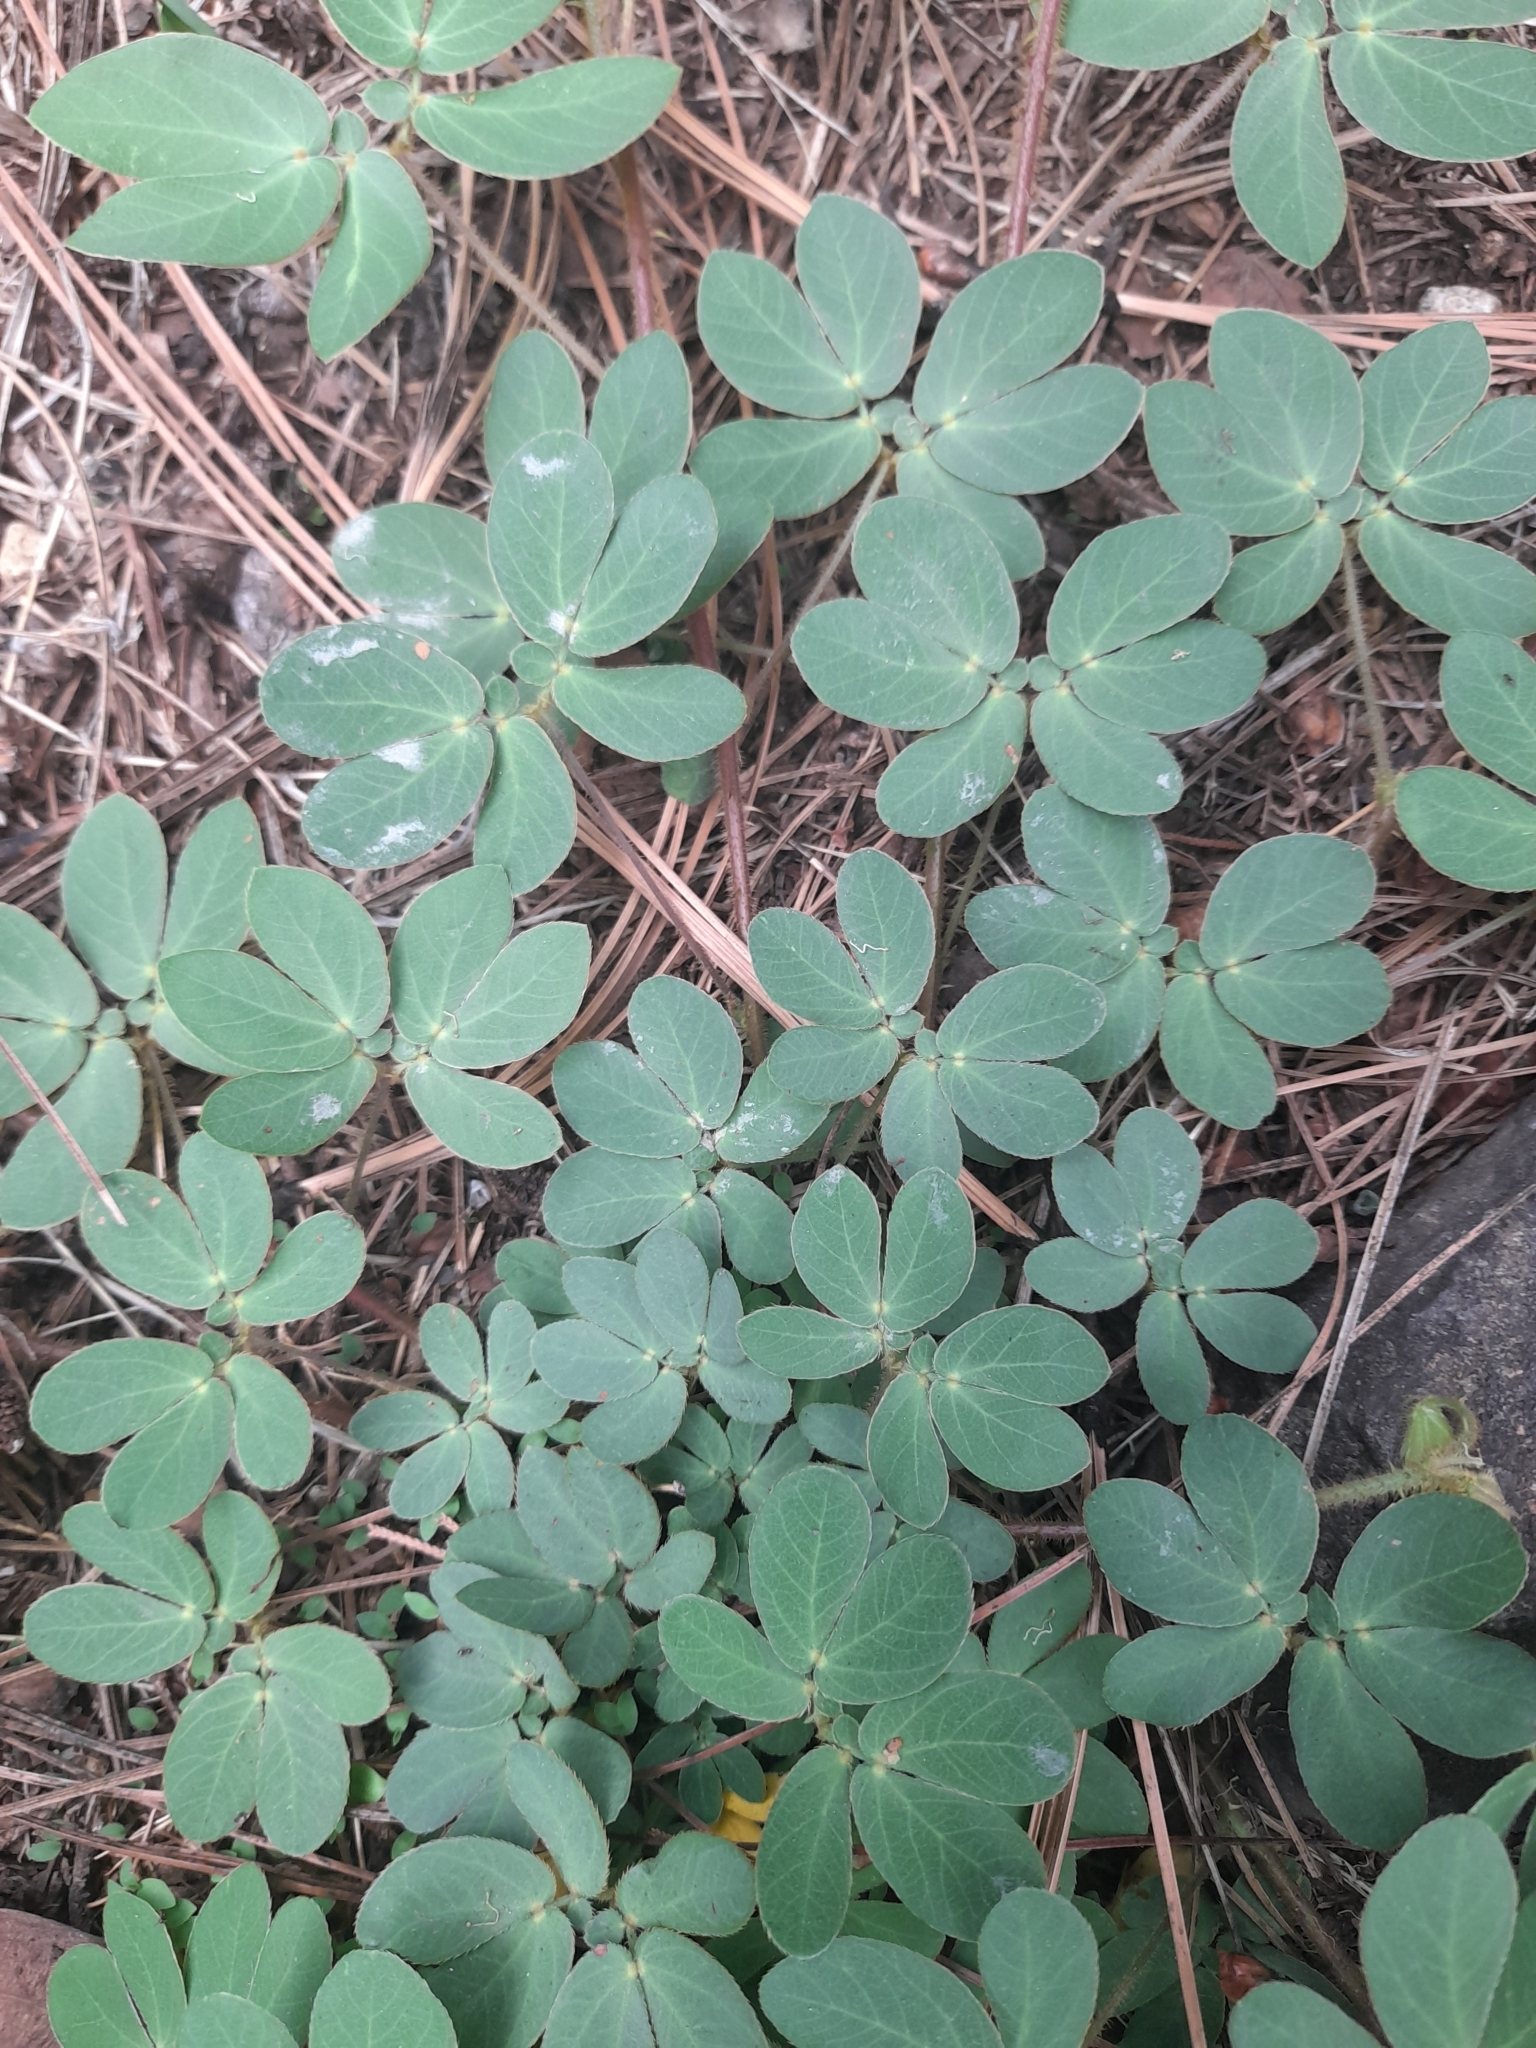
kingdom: Plantae
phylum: Tracheophyta
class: Magnoliopsida
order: Fabales
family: Fabaceae
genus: Mimosa
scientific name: Mimosa albida
